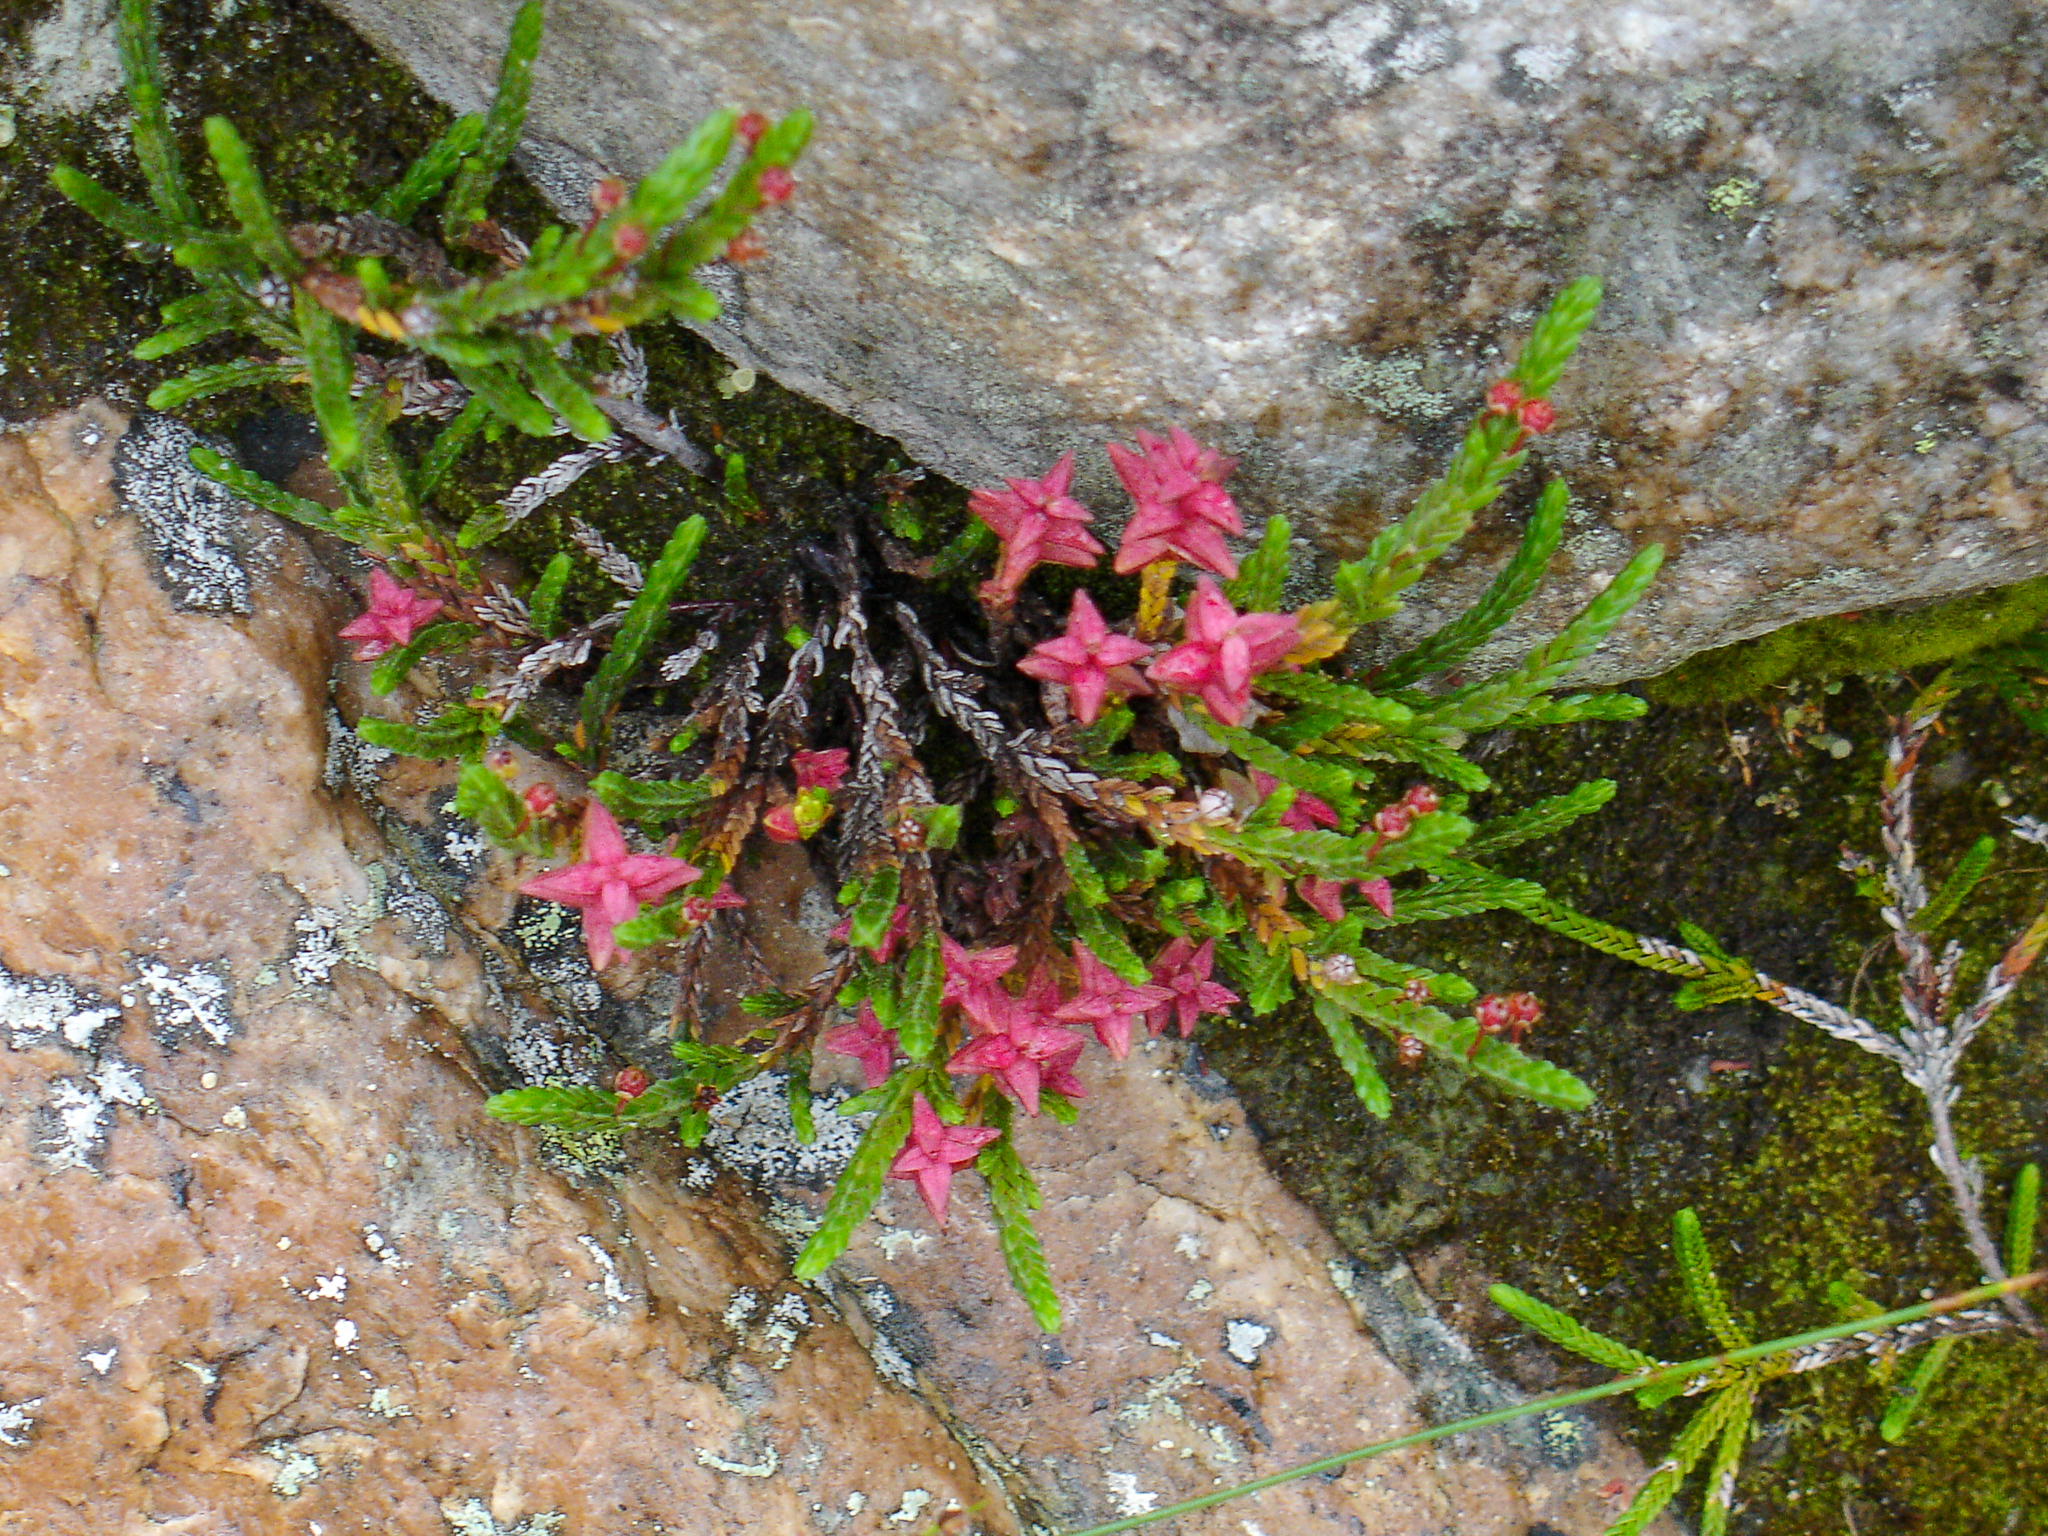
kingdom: Plantae
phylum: Tracheophyta
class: Magnoliopsida
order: Ericales
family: Ericaceae
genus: Cassiope
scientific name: Cassiope mertensiana
